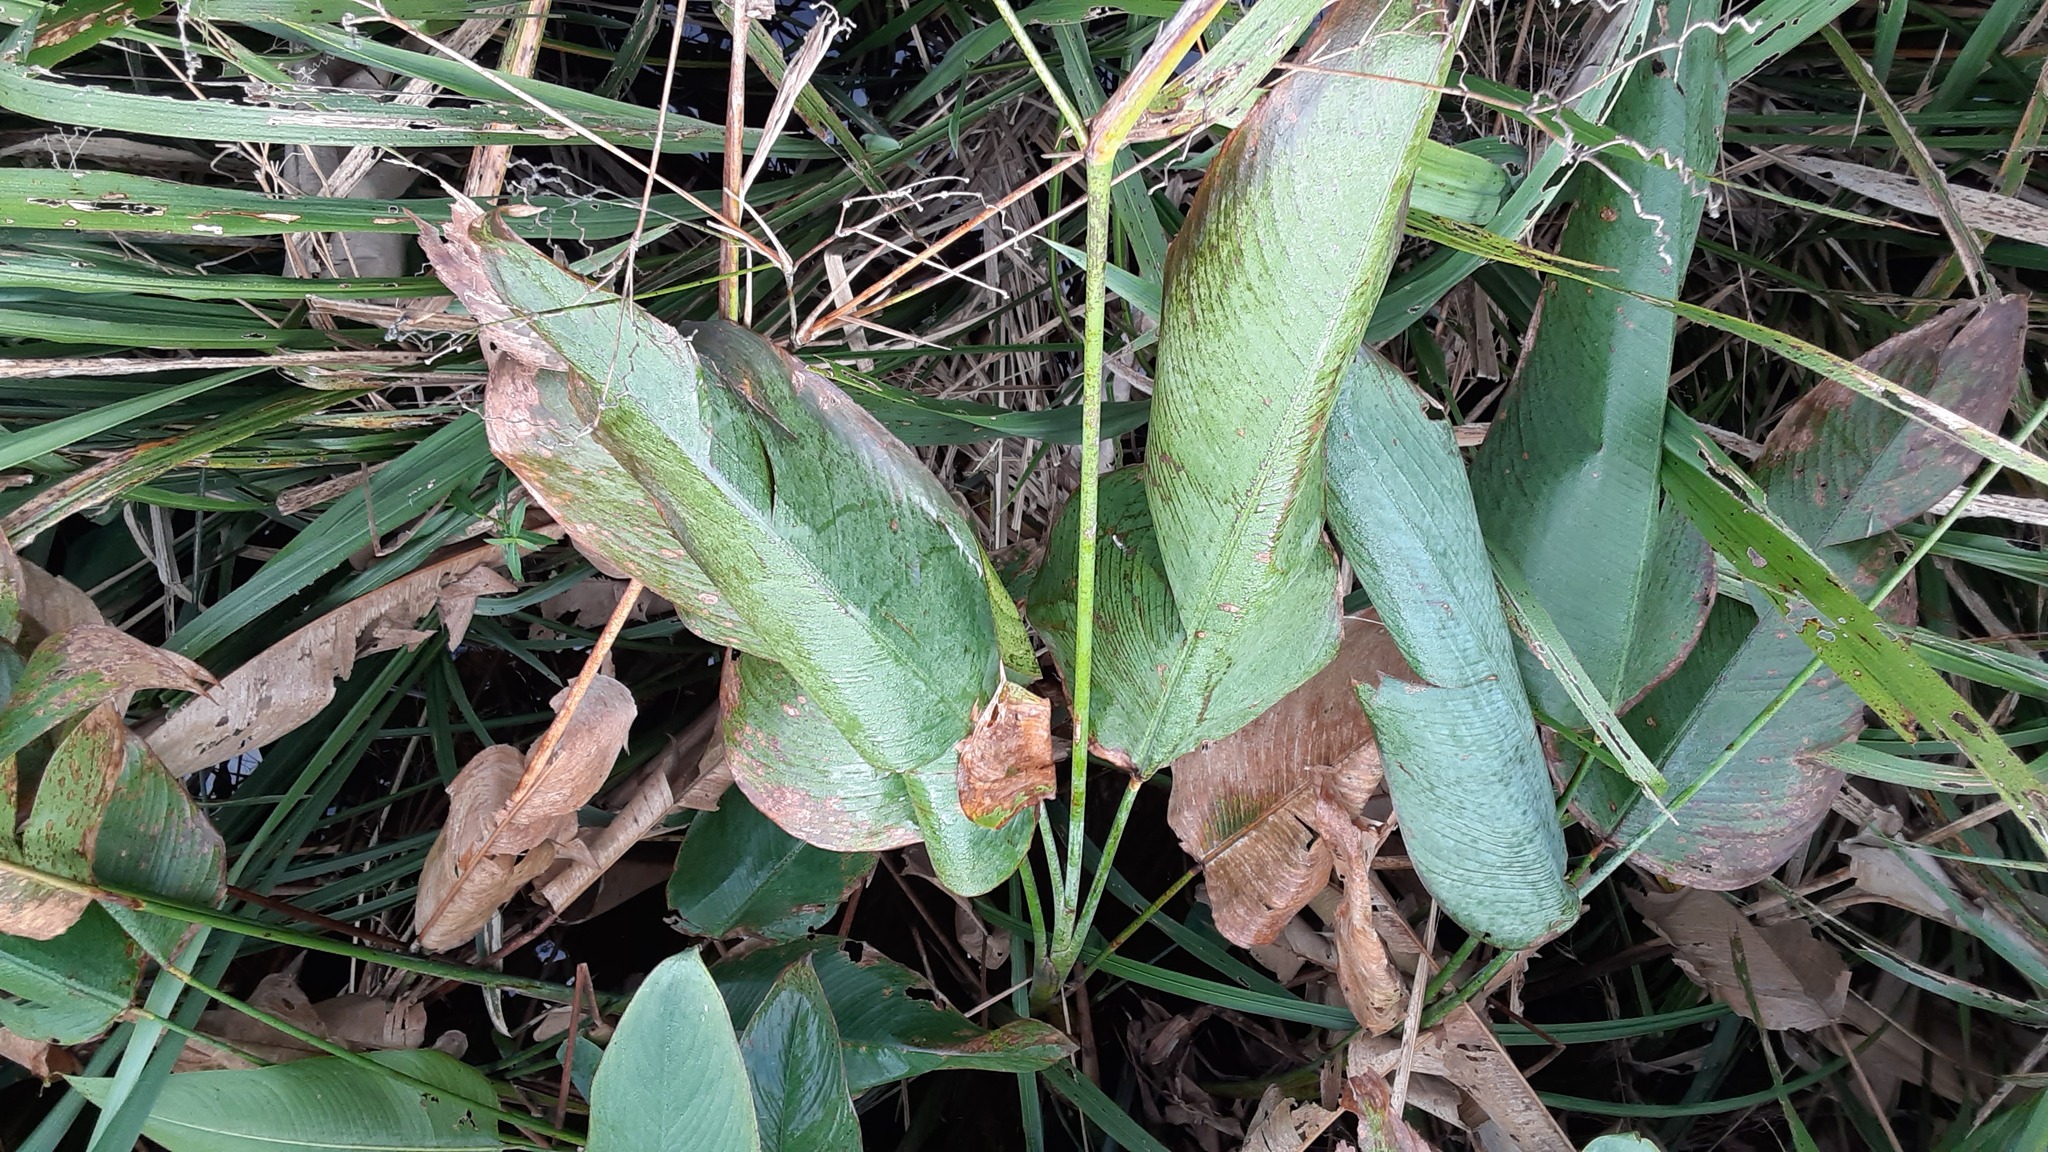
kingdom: Plantae
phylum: Tracheophyta
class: Liliopsida
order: Zingiberales
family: Marantaceae
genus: Thalia
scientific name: Thalia geniculata
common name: Arrowroot
